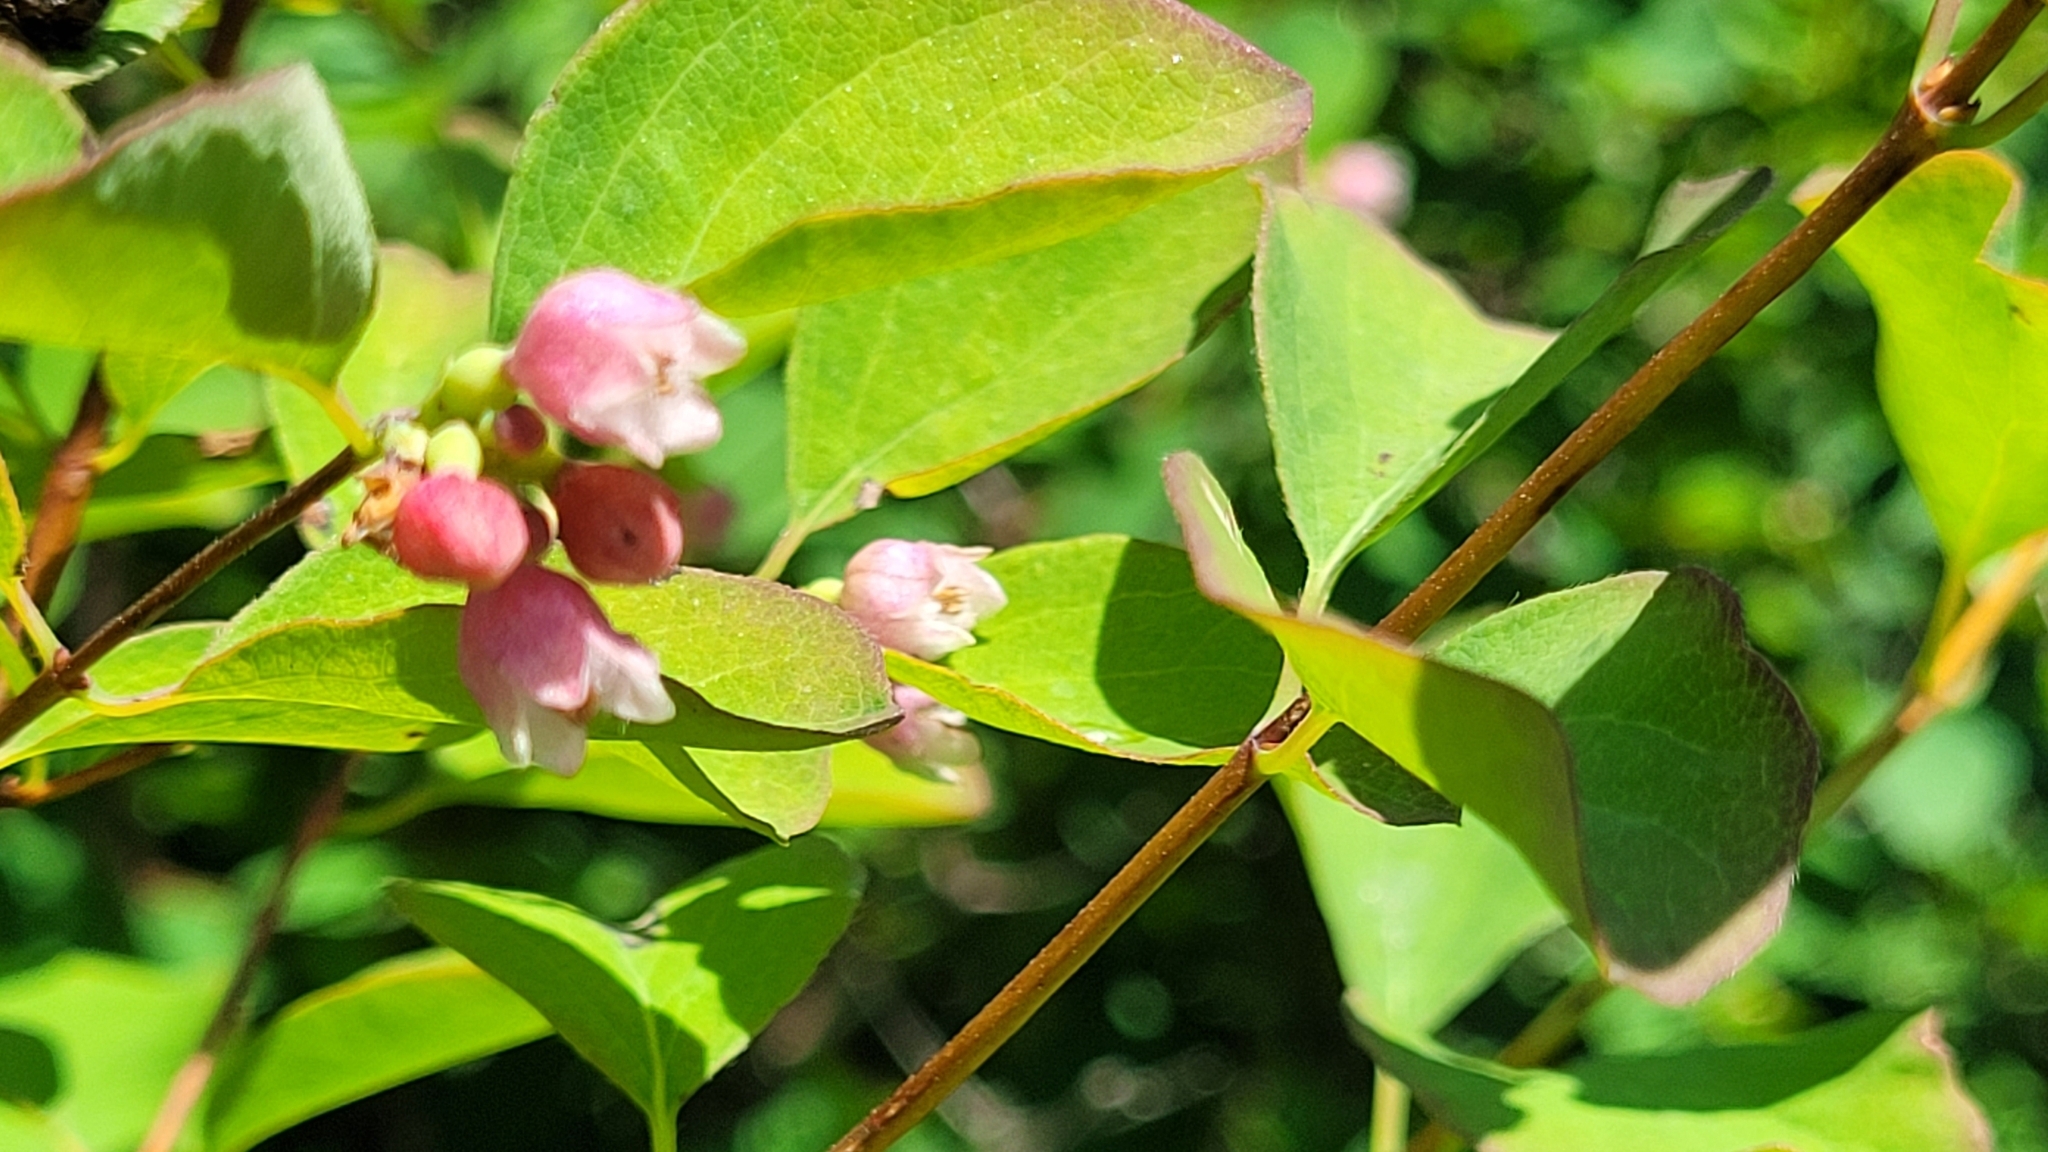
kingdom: Plantae
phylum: Tracheophyta
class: Magnoliopsida
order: Dipsacales
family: Caprifoliaceae
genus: Symphoricarpos
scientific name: Symphoricarpos albus
